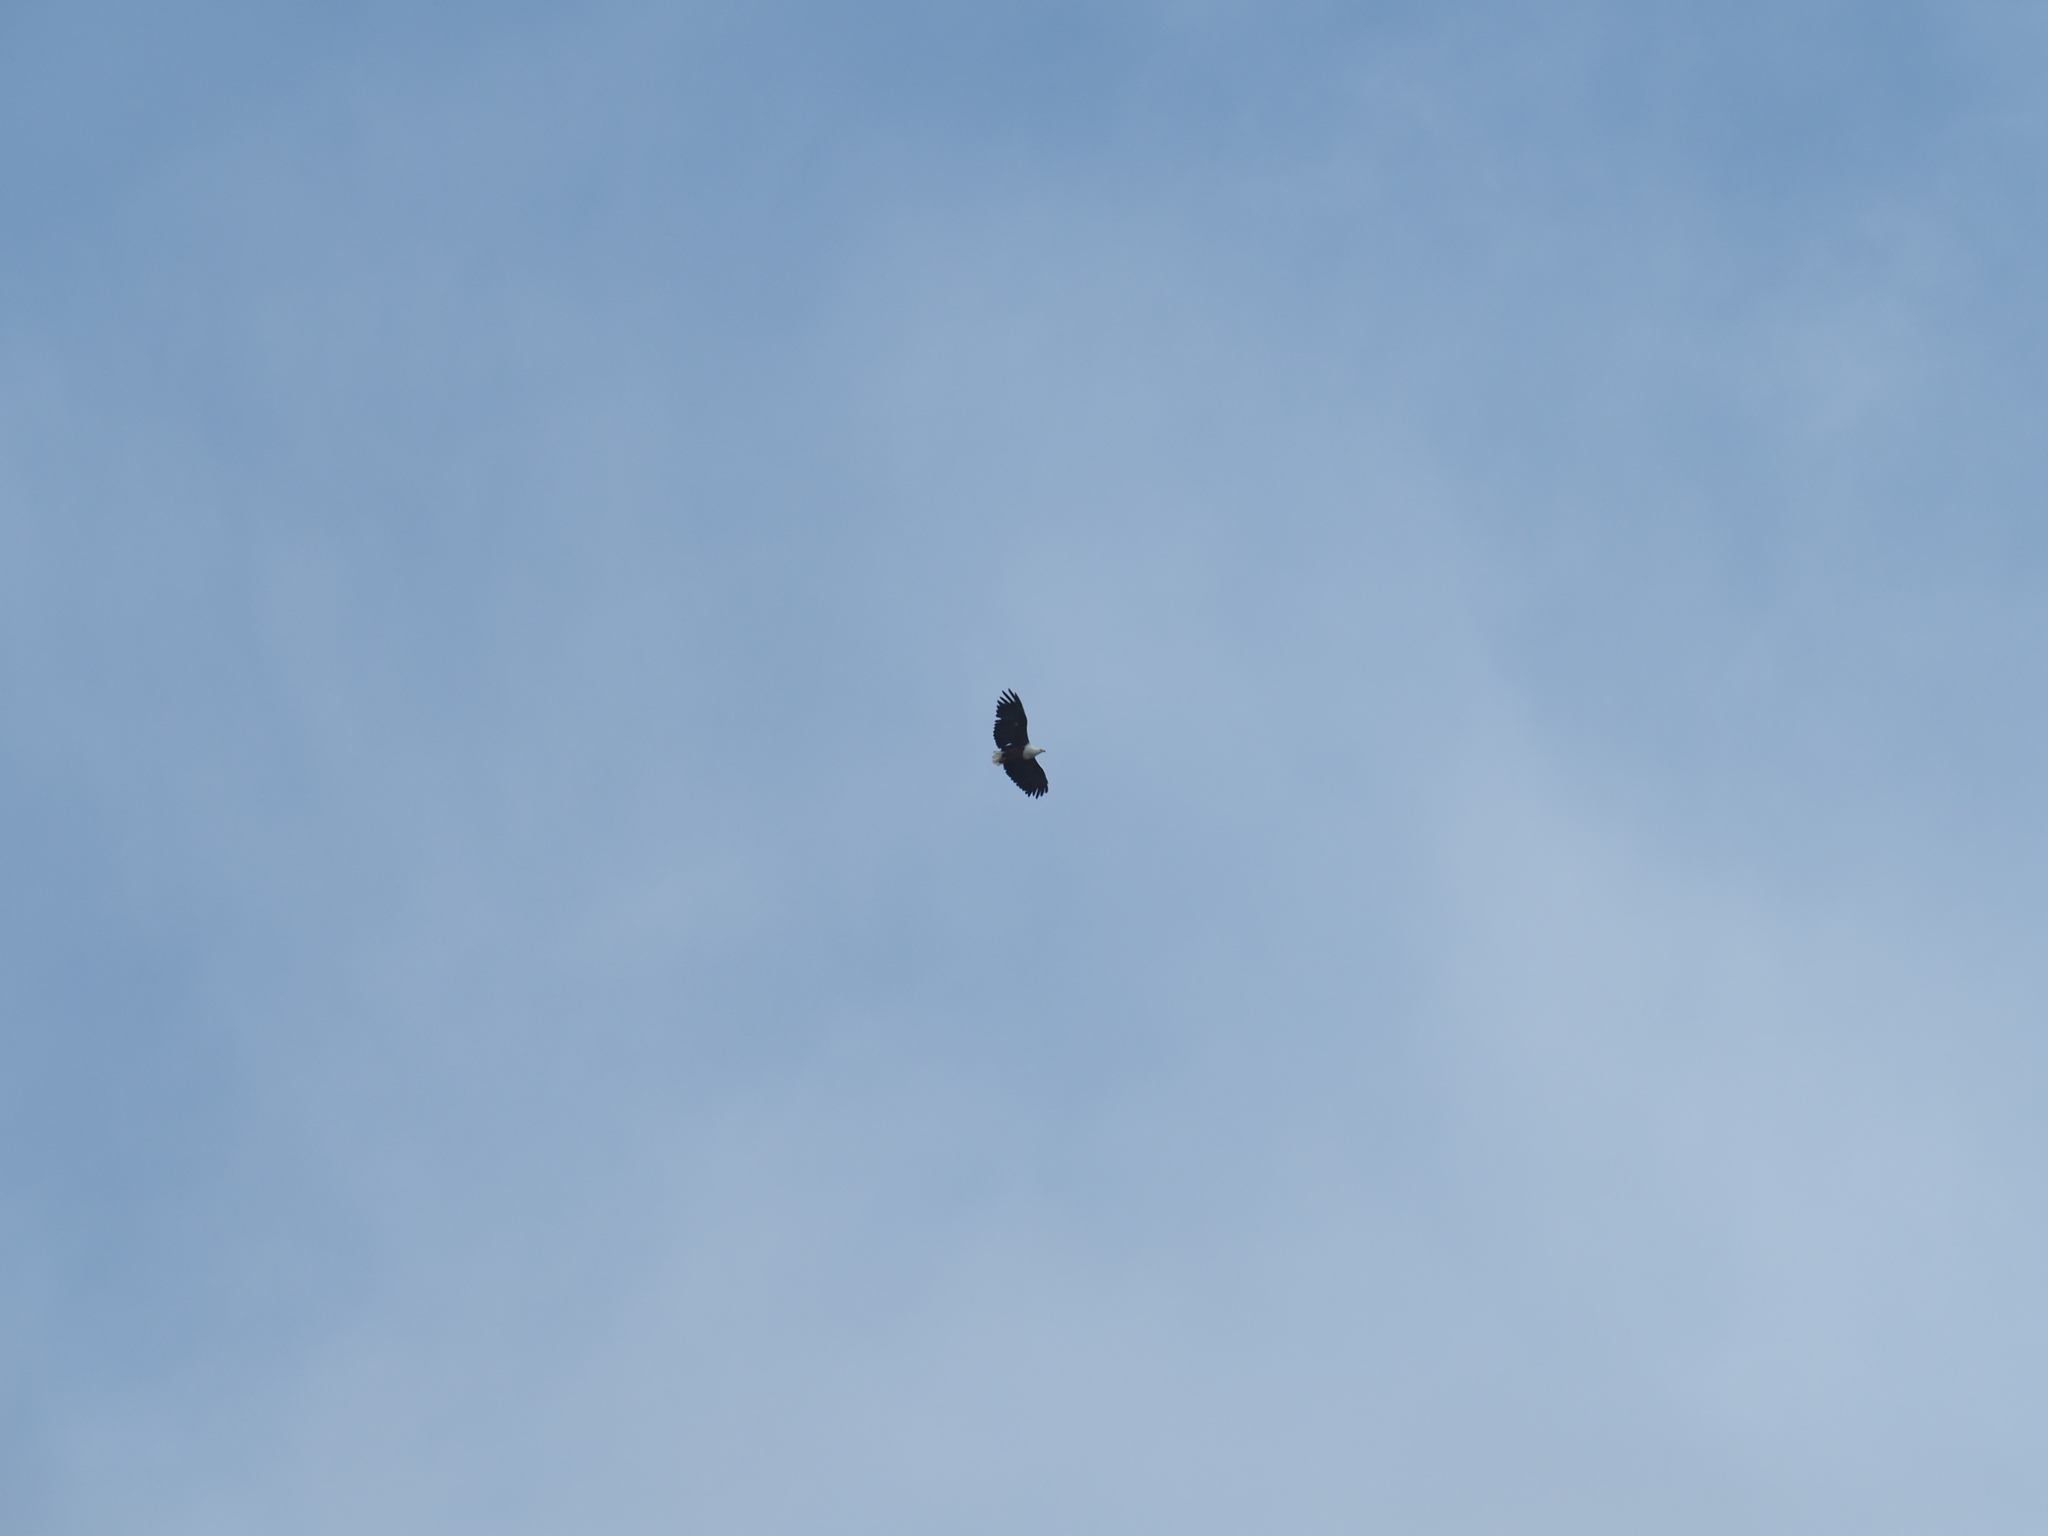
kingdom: Animalia
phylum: Chordata
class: Aves
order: Accipitriformes
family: Accipitridae
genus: Haliaeetus
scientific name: Haliaeetus vocifer
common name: African fish eagle
